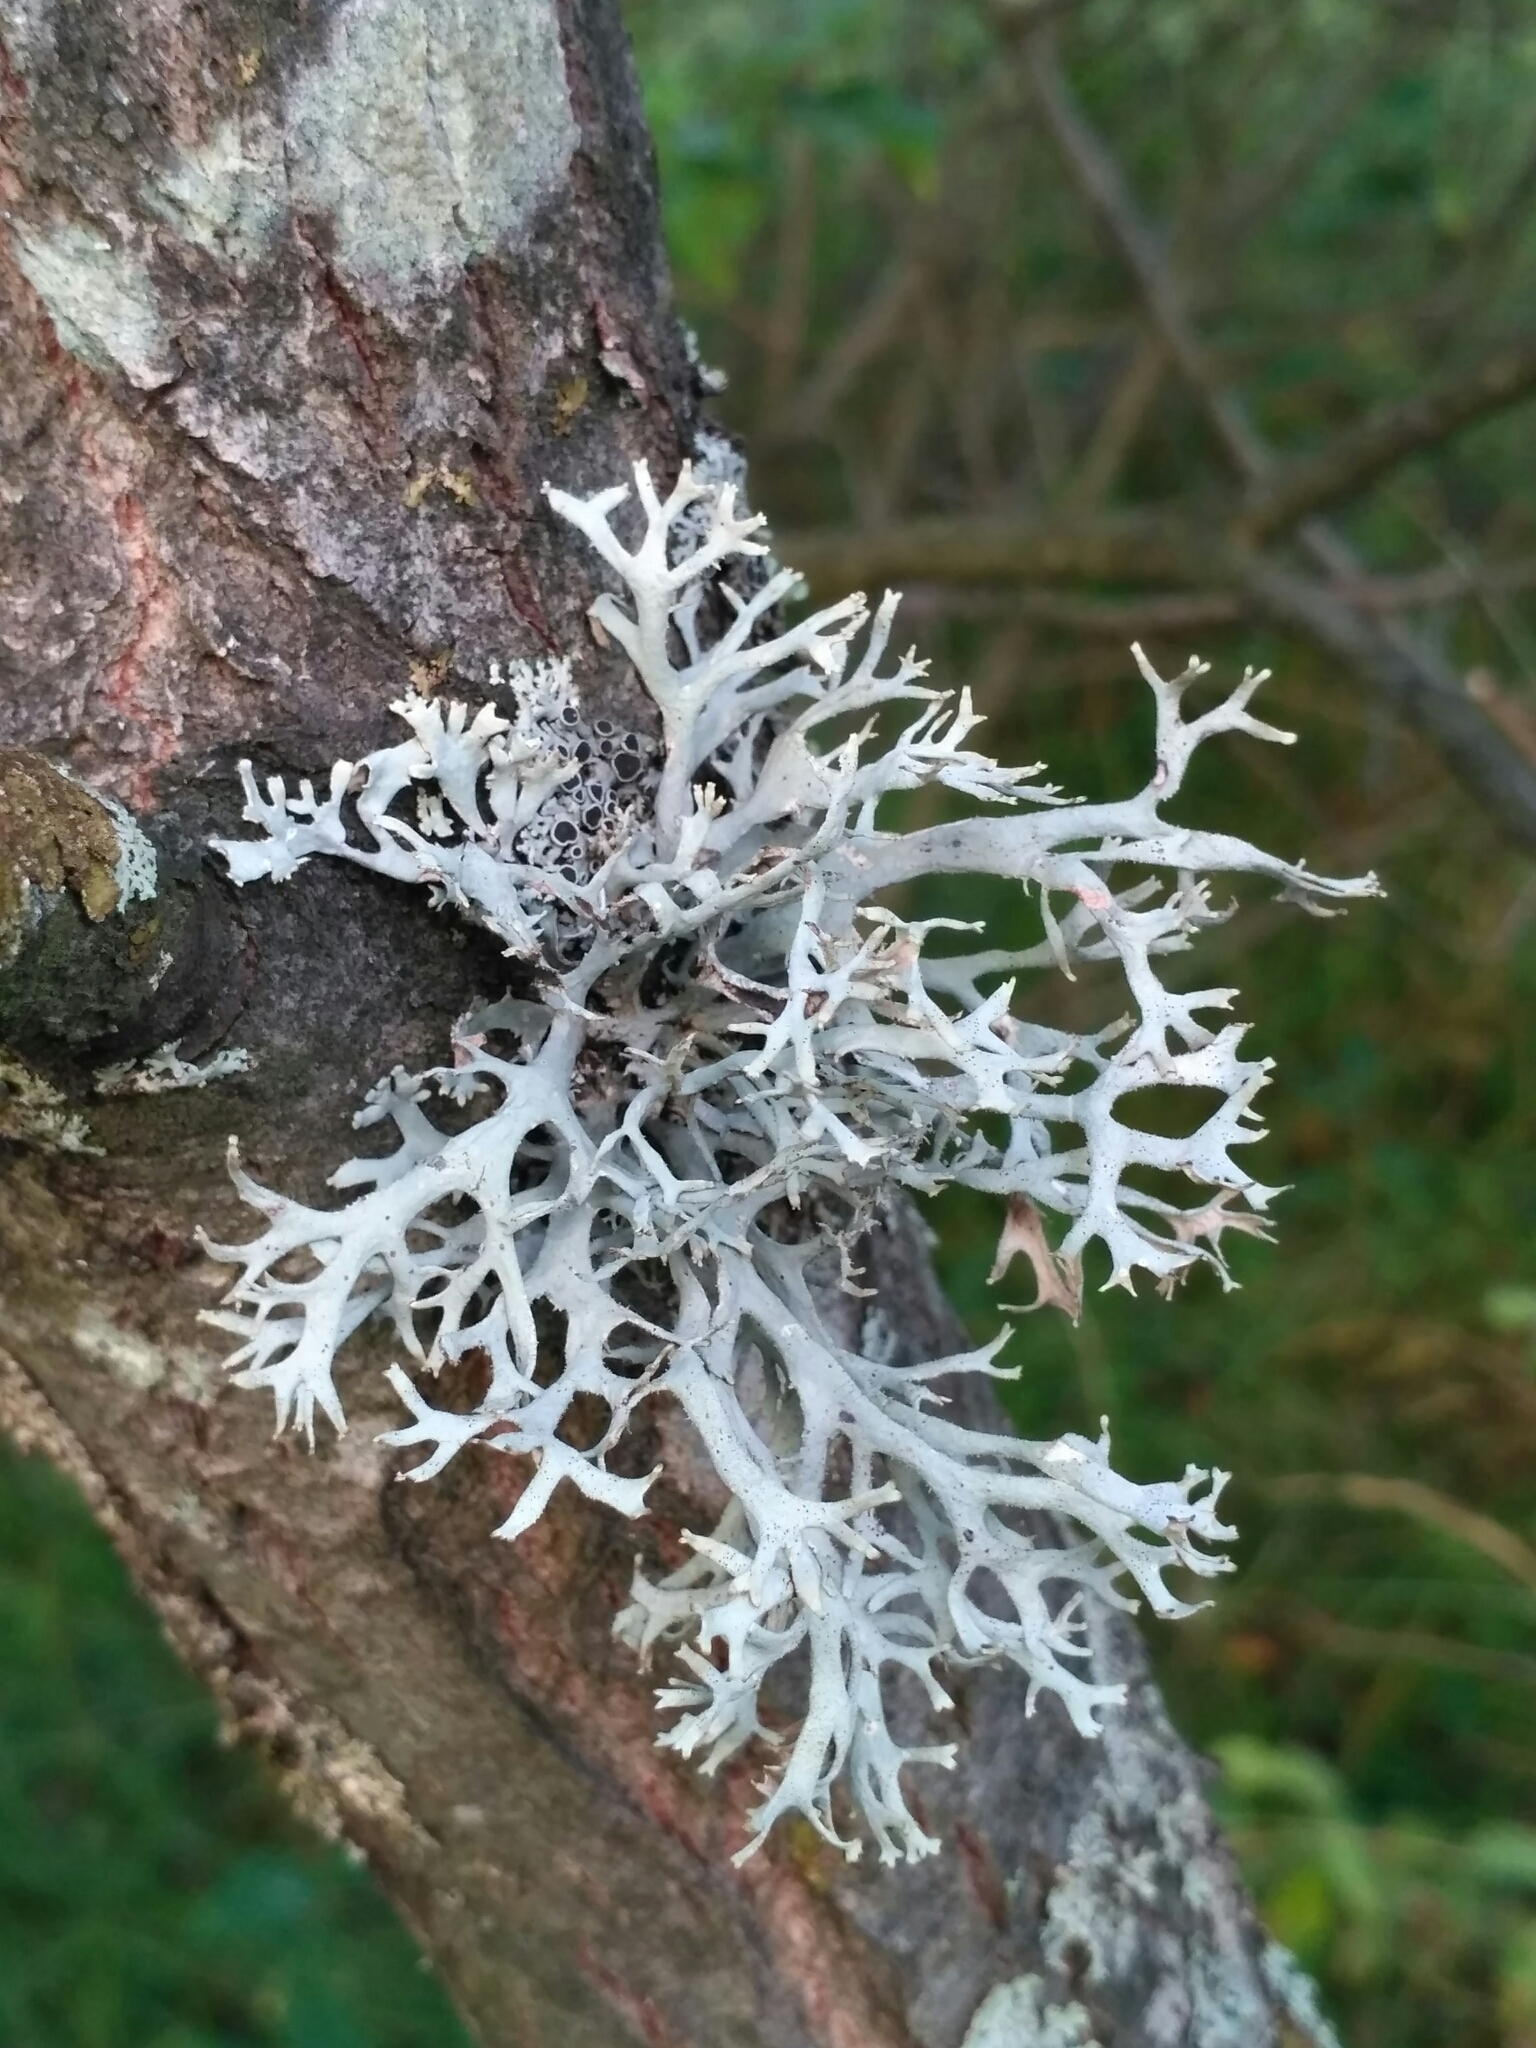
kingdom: Fungi
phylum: Ascomycota
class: Lecanoromycetes
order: Lecanorales
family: Parmeliaceae
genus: Pseudevernia
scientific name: Pseudevernia furfuracea
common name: Tree moss
